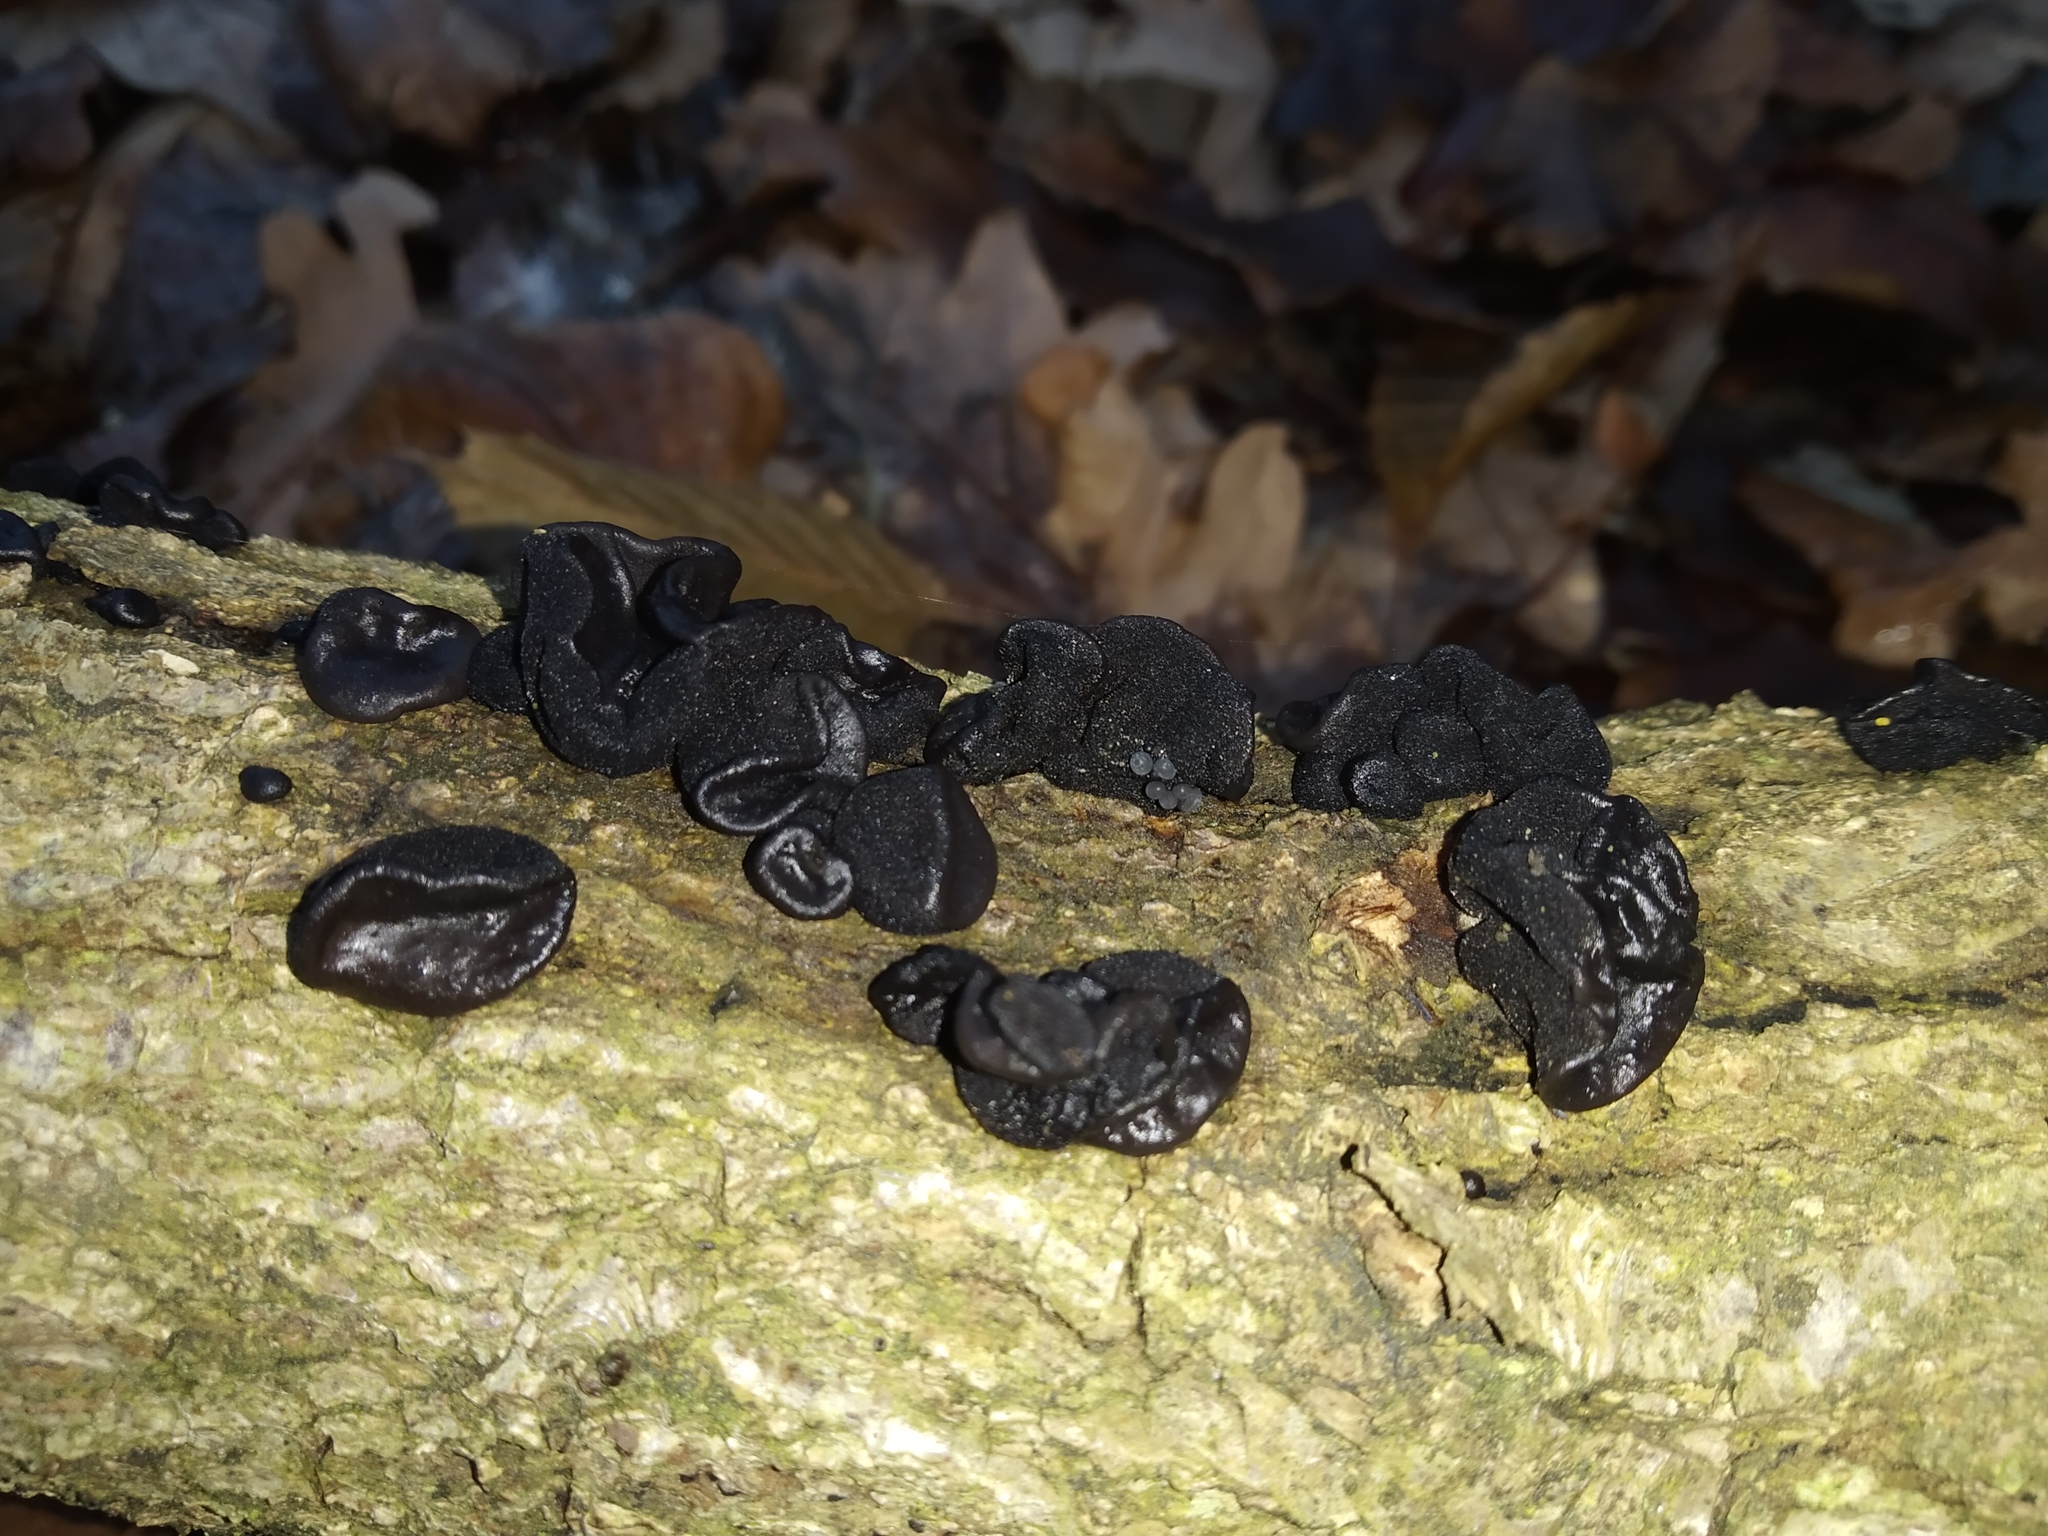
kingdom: Fungi
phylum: Basidiomycota
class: Agaricomycetes
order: Auriculariales
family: Auriculariaceae
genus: Exidia
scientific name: Exidia glandulosa
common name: Witches' butter
